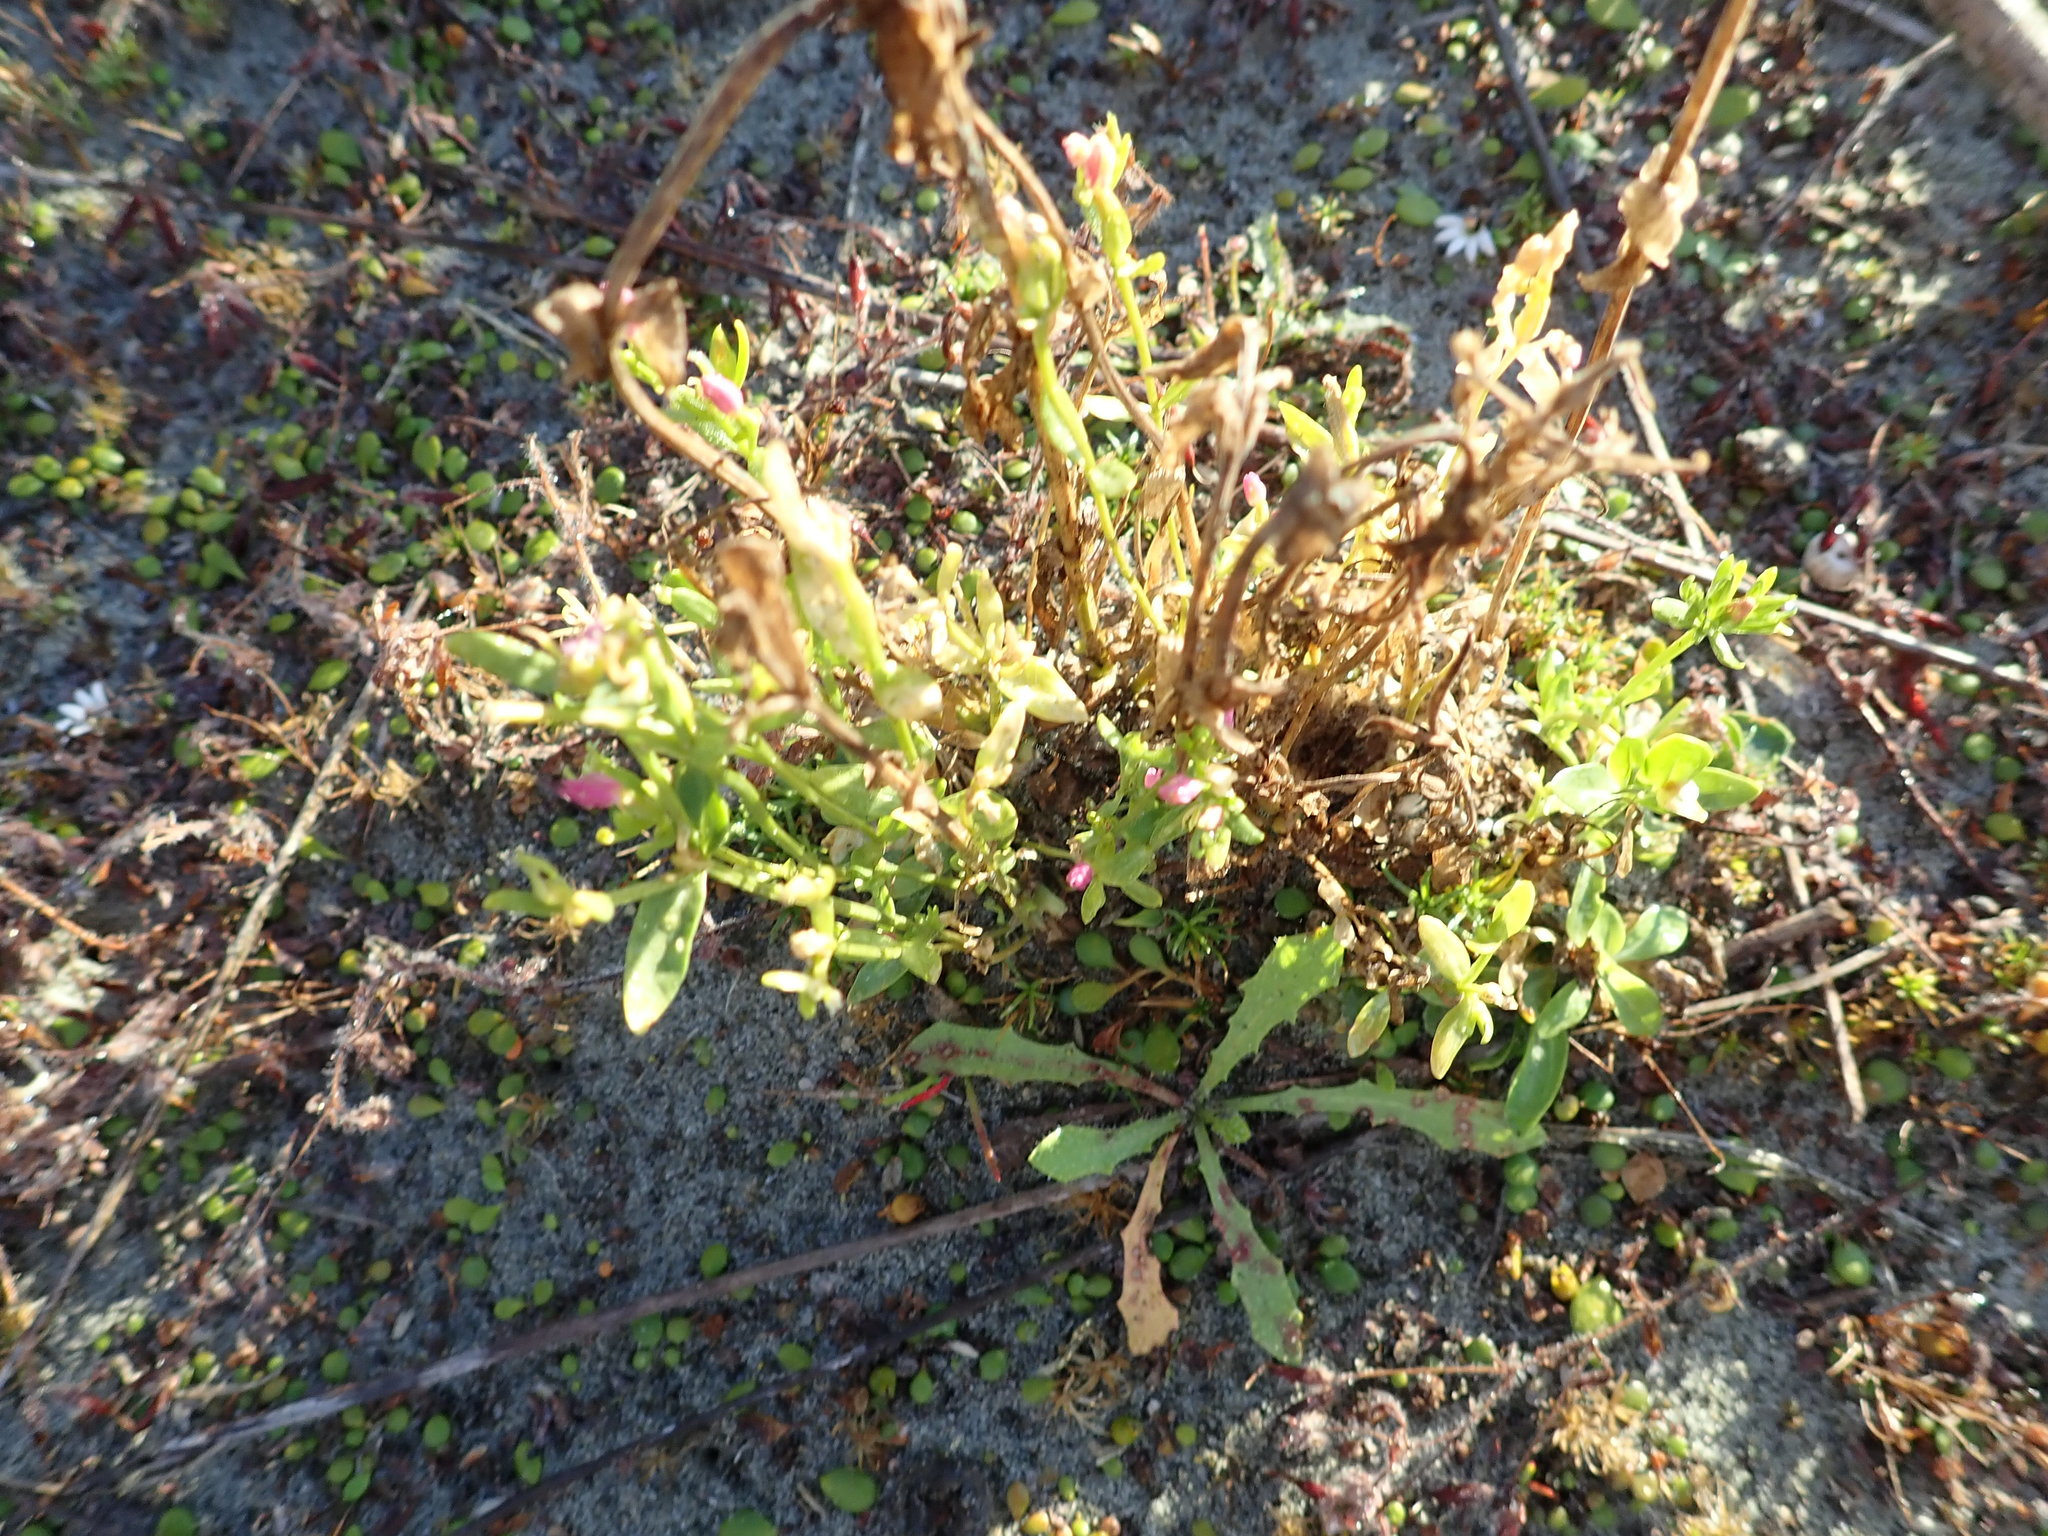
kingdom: Plantae
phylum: Tracheophyta
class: Magnoliopsida
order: Gentianales
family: Gentianaceae
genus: Centaurium
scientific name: Centaurium erythraea
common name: Common centaury
